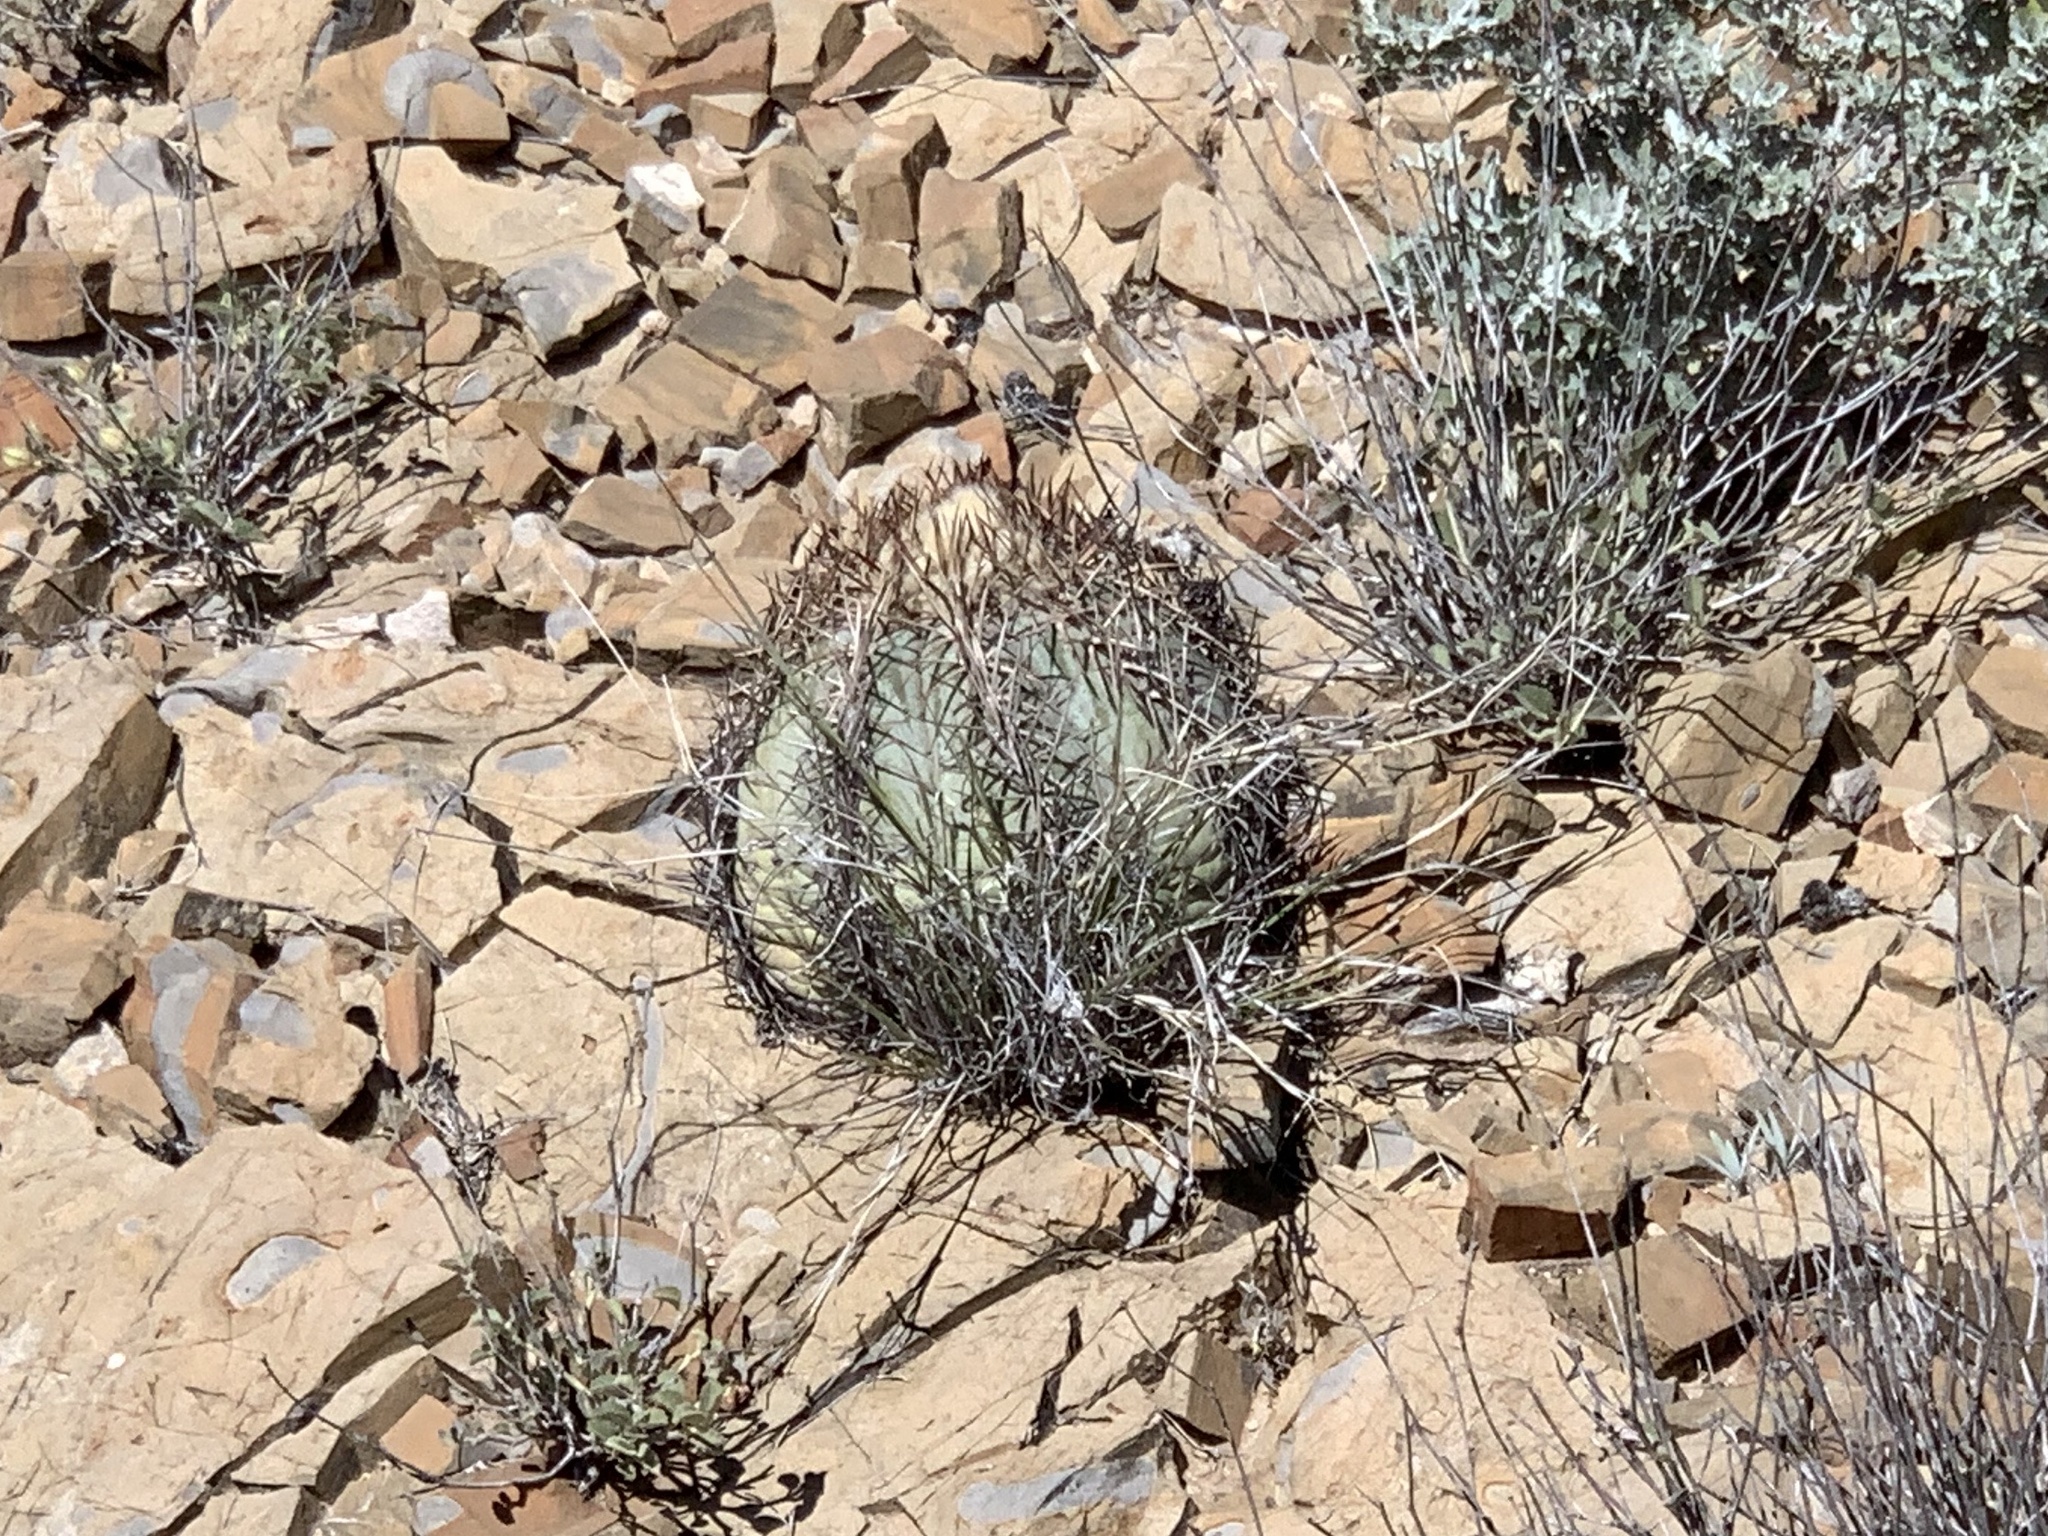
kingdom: Plantae
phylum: Tracheophyta
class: Magnoliopsida
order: Caryophyllales
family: Cactaceae
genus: Echinocactus
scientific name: Echinocactus horizonthalonius
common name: Devilshead
